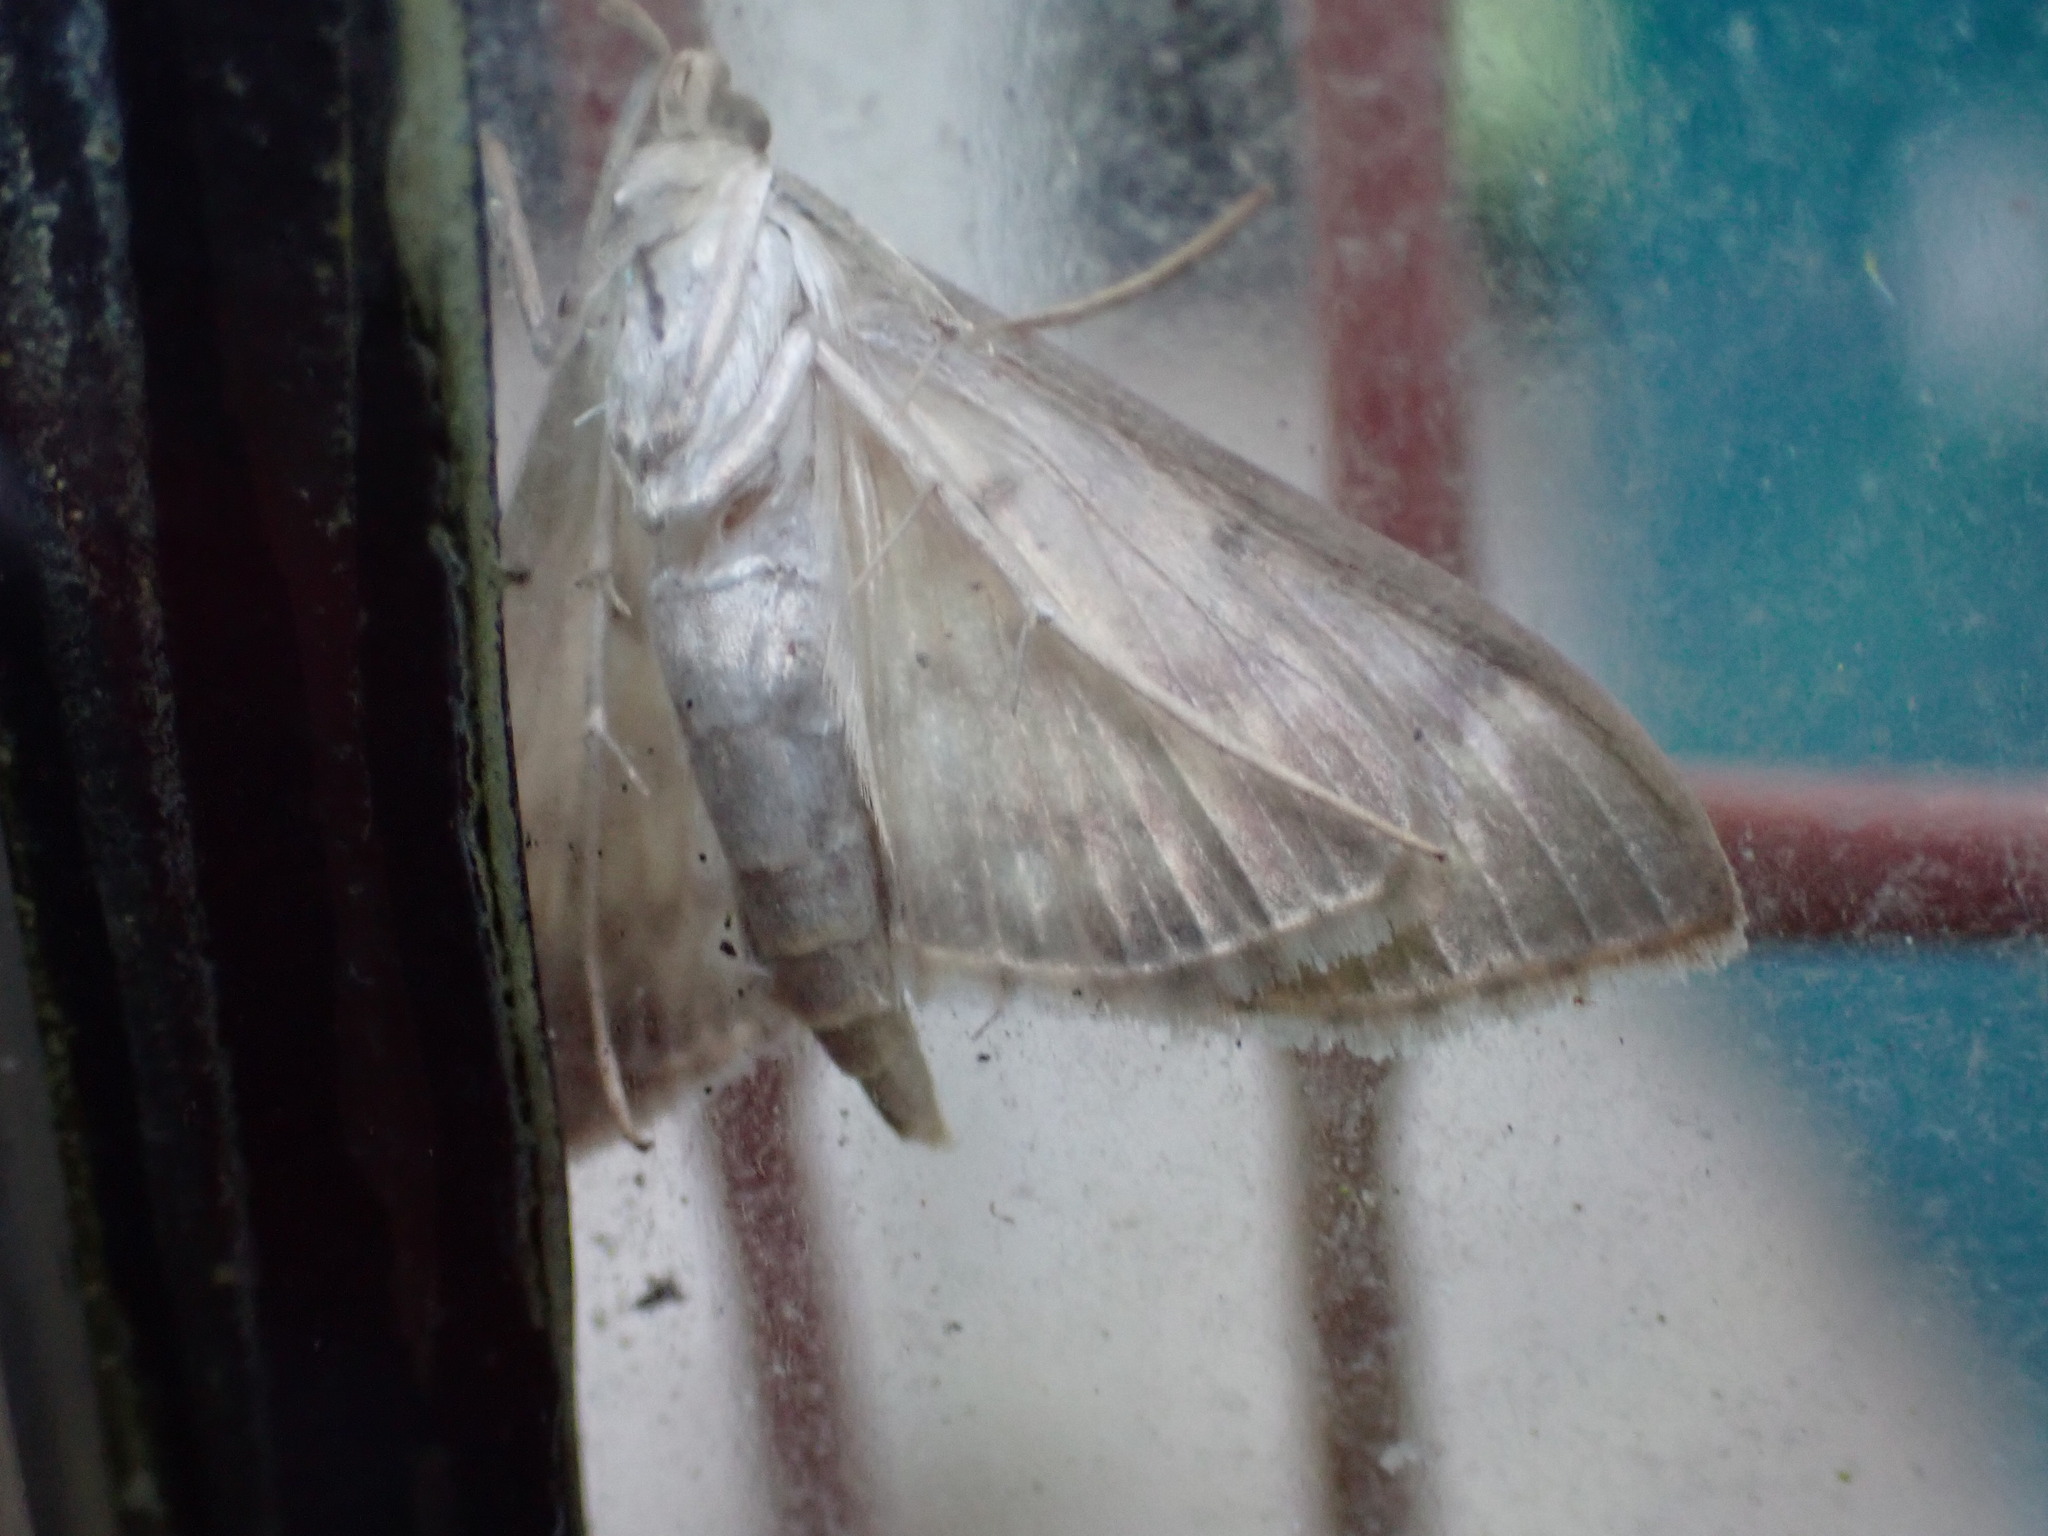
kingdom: Animalia
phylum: Arthropoda
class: Insecta
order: Lepidoptera
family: Crambidae
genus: Patania
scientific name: Patania ruralis
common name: Mother of pearl
